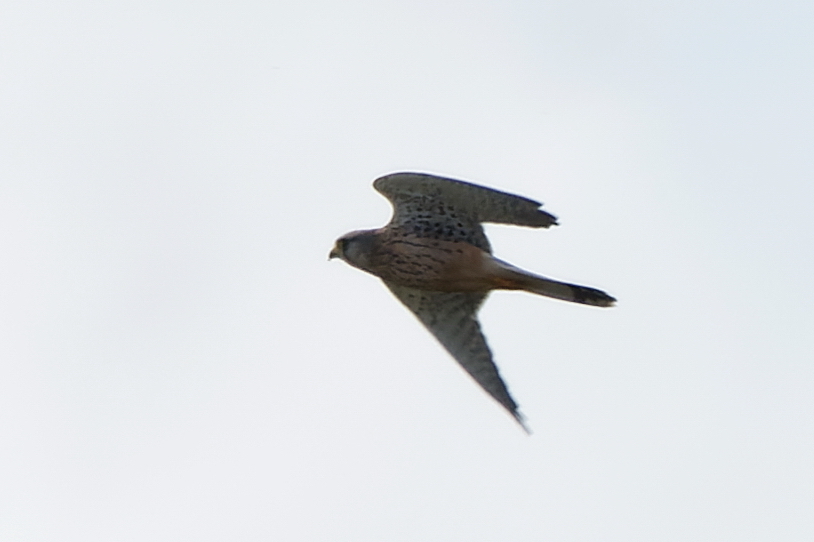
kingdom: Animalia
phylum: Chordata
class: Aves
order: Falconiformes
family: Falconidae
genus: Falco
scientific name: Falco tinnunculus
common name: Common kestrel
